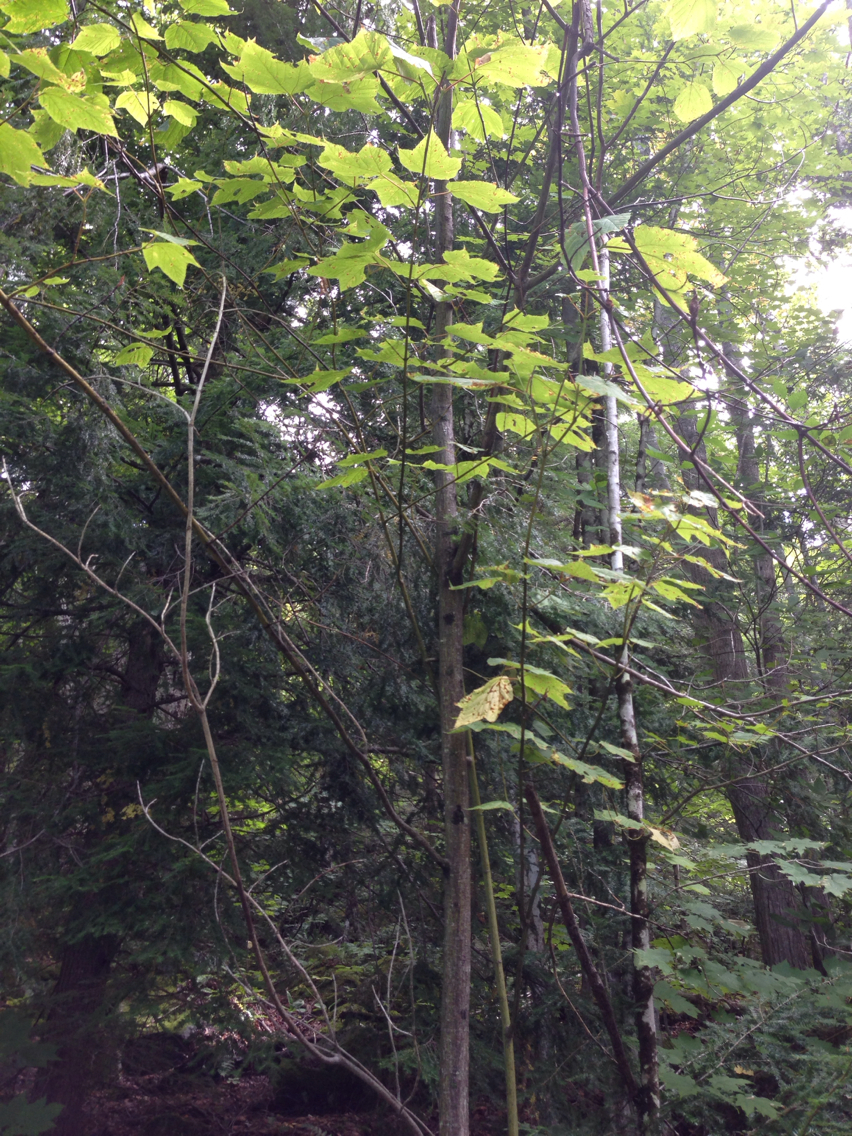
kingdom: Plantae
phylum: Tracheophyta
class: Magnoliopsida
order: Sapindales
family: Sapindaceae
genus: Acer
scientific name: Acer pensylvanicum
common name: Moosewood
